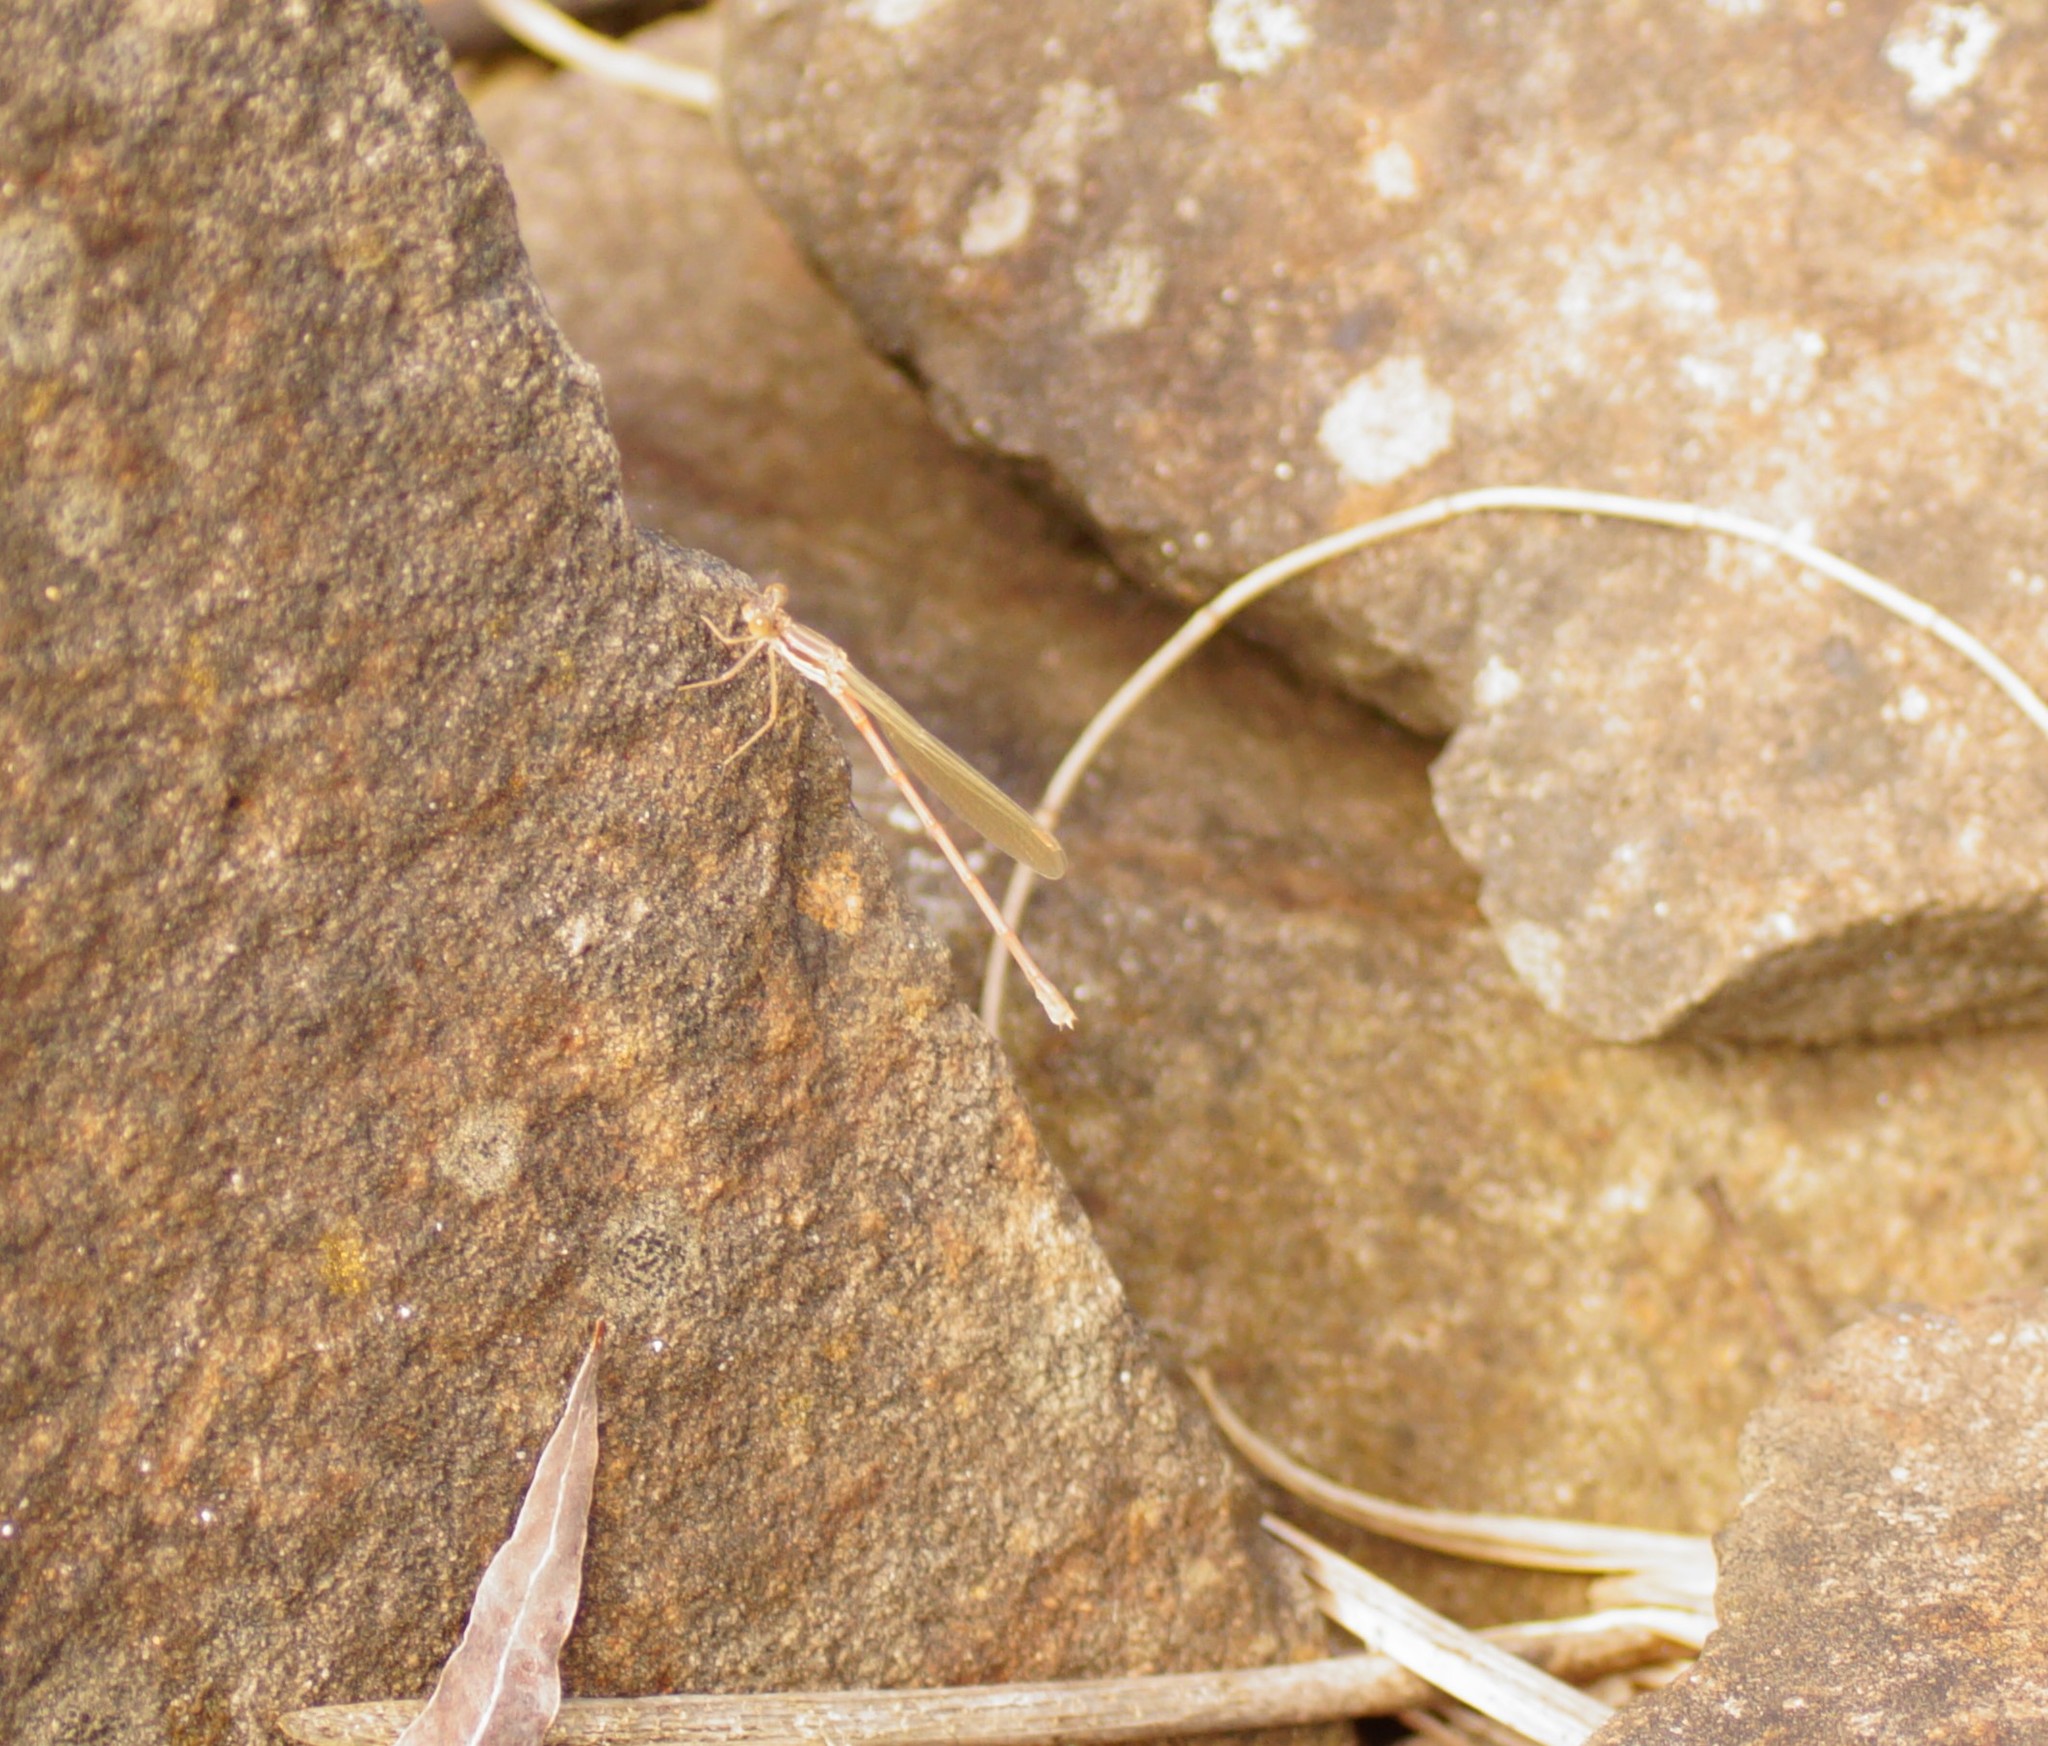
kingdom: Animalia
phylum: Arthropoda
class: Insecta
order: Odonata
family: Lestidae
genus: Austrolestes
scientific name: Austrolestes analis
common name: Slender ringtail
